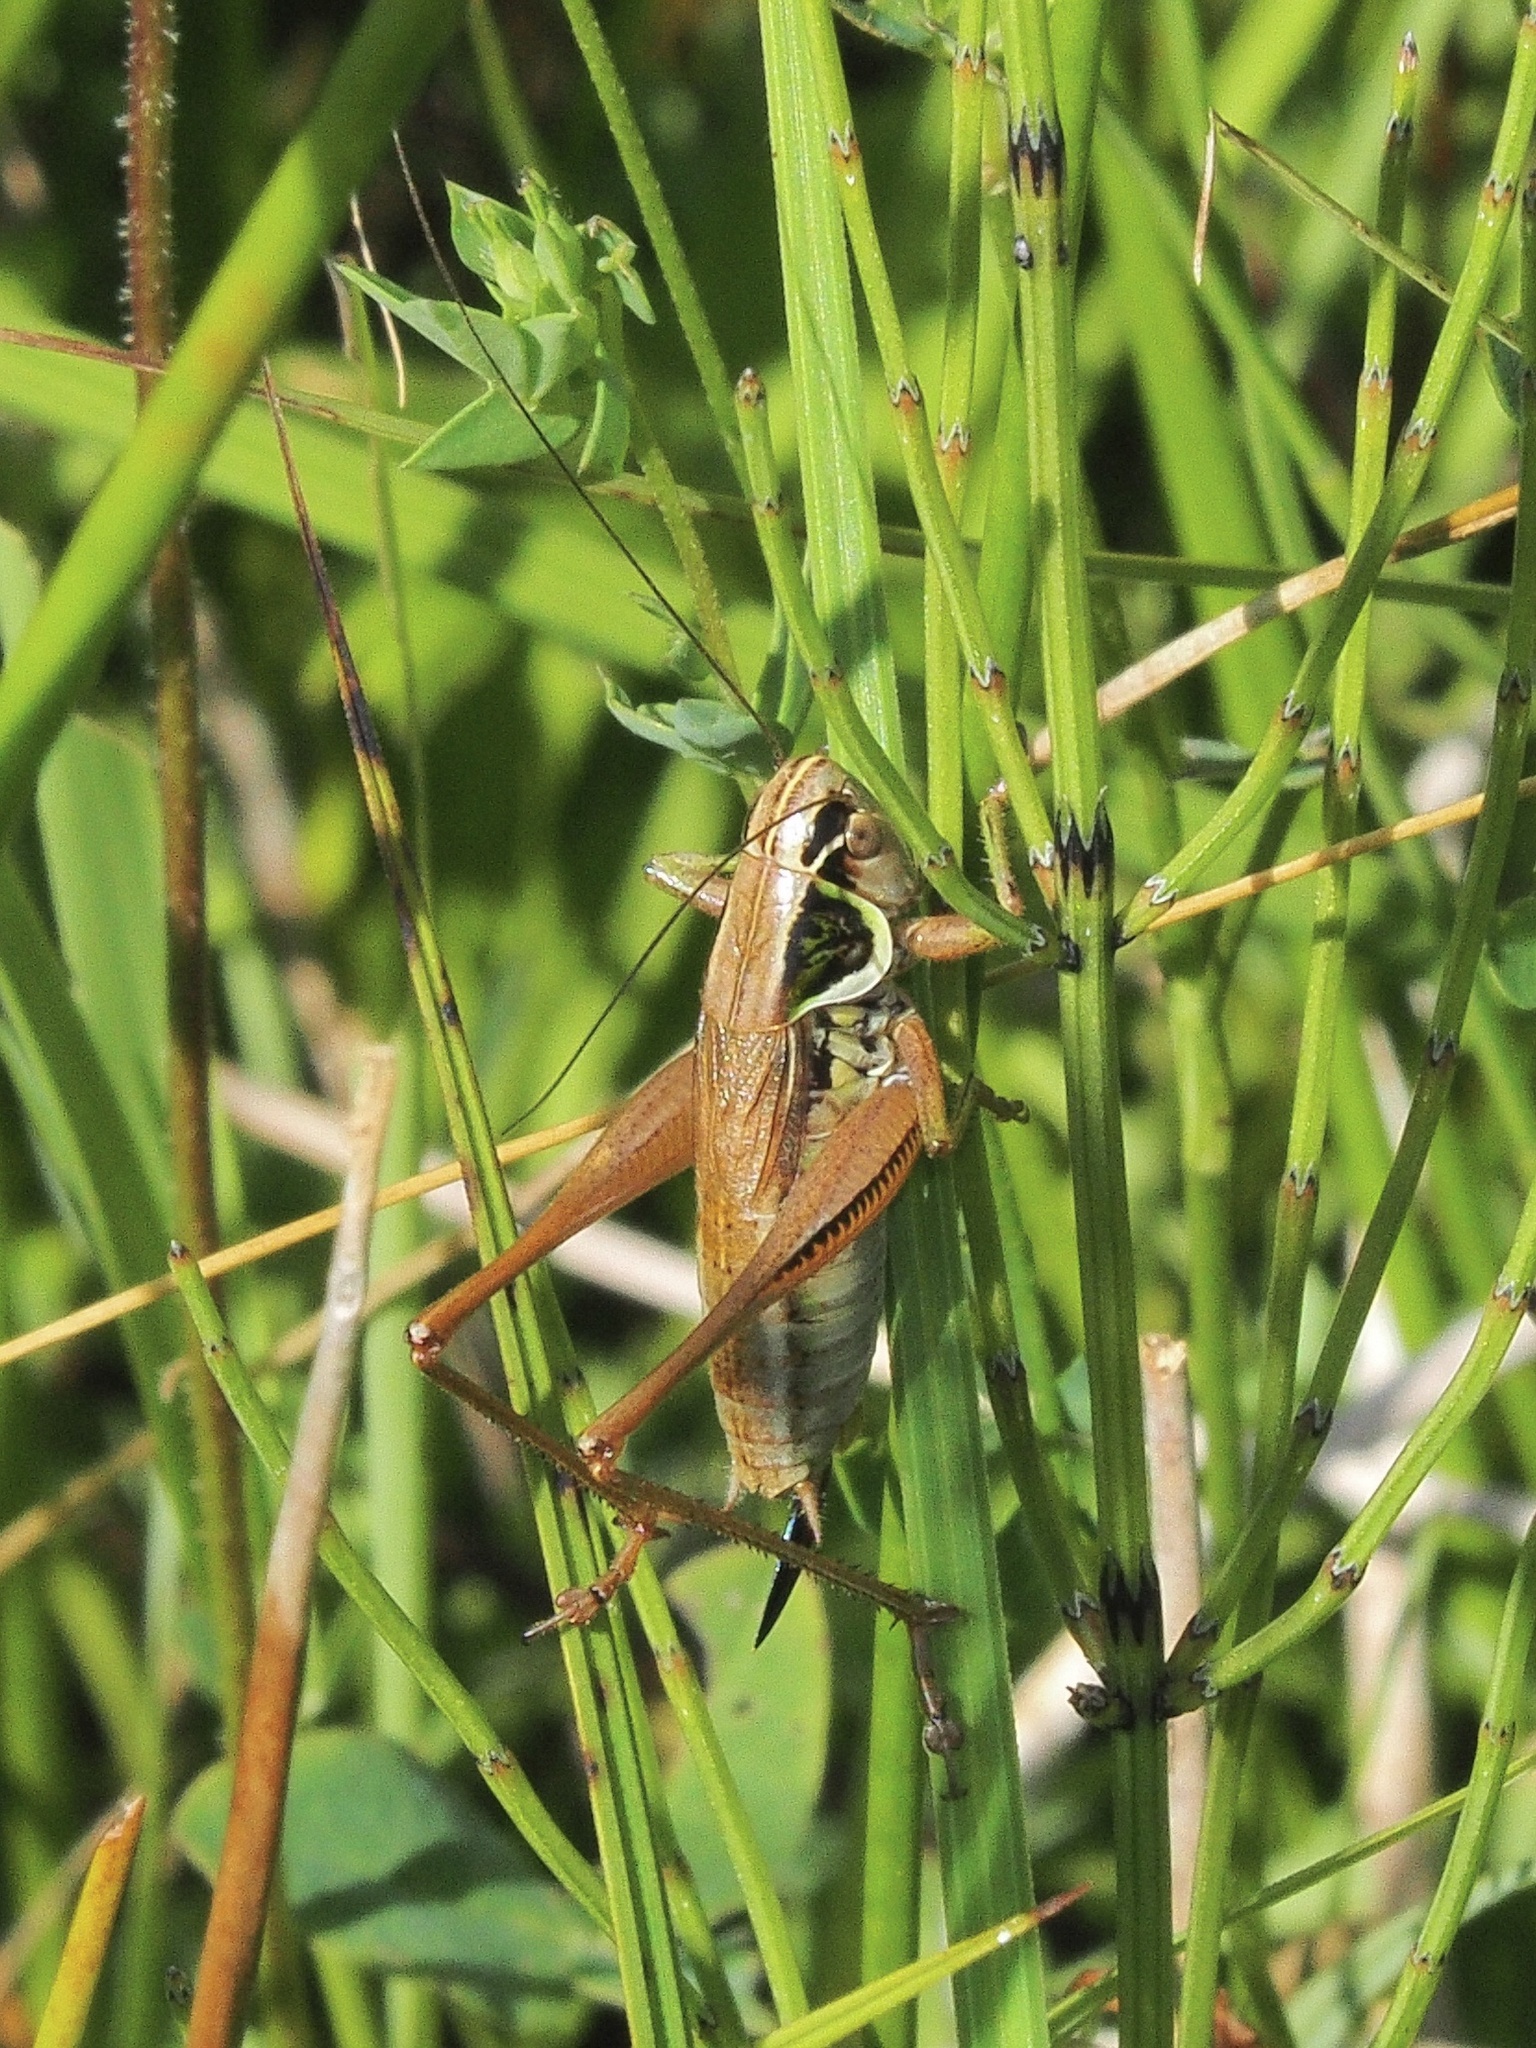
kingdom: Animalia
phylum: Arthropoda
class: Insecta
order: Orthoptera
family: Tettigoniidae
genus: Roeseliana
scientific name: Roeseliana roeselii
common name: Roesel's bush cricket
